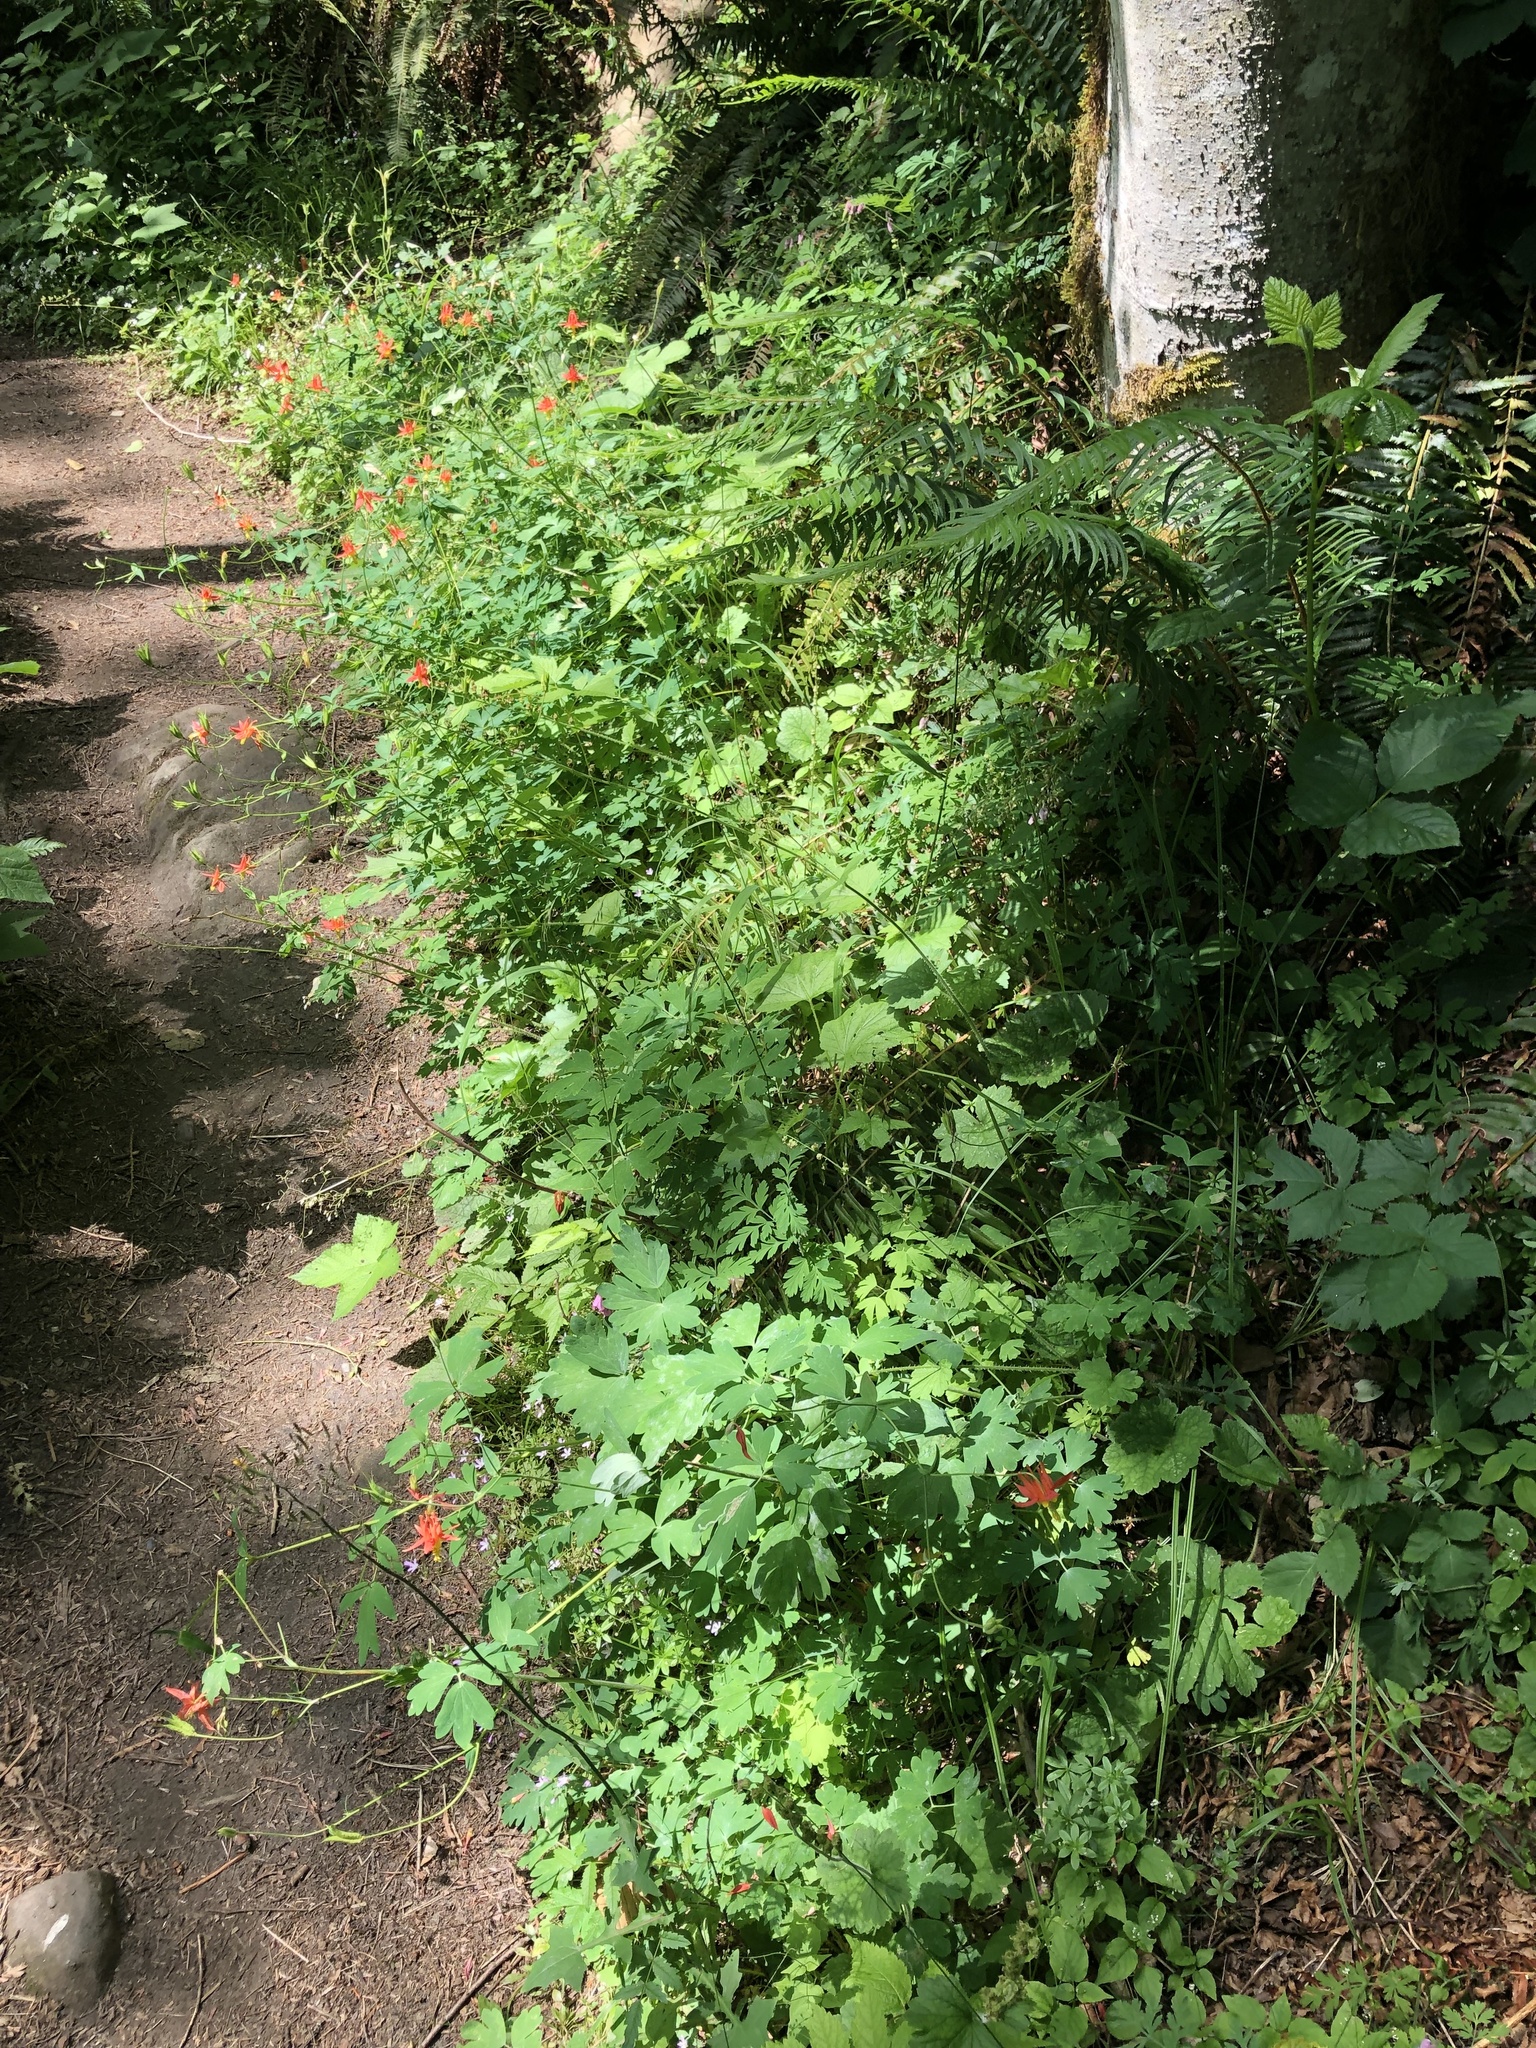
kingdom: Plantae
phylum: Tracheophyta
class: Magnoliopsida
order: Ranunculales
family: Ranunculaceae
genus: Aquilegia
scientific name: Aquilegia formosa
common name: Sitka columbine
